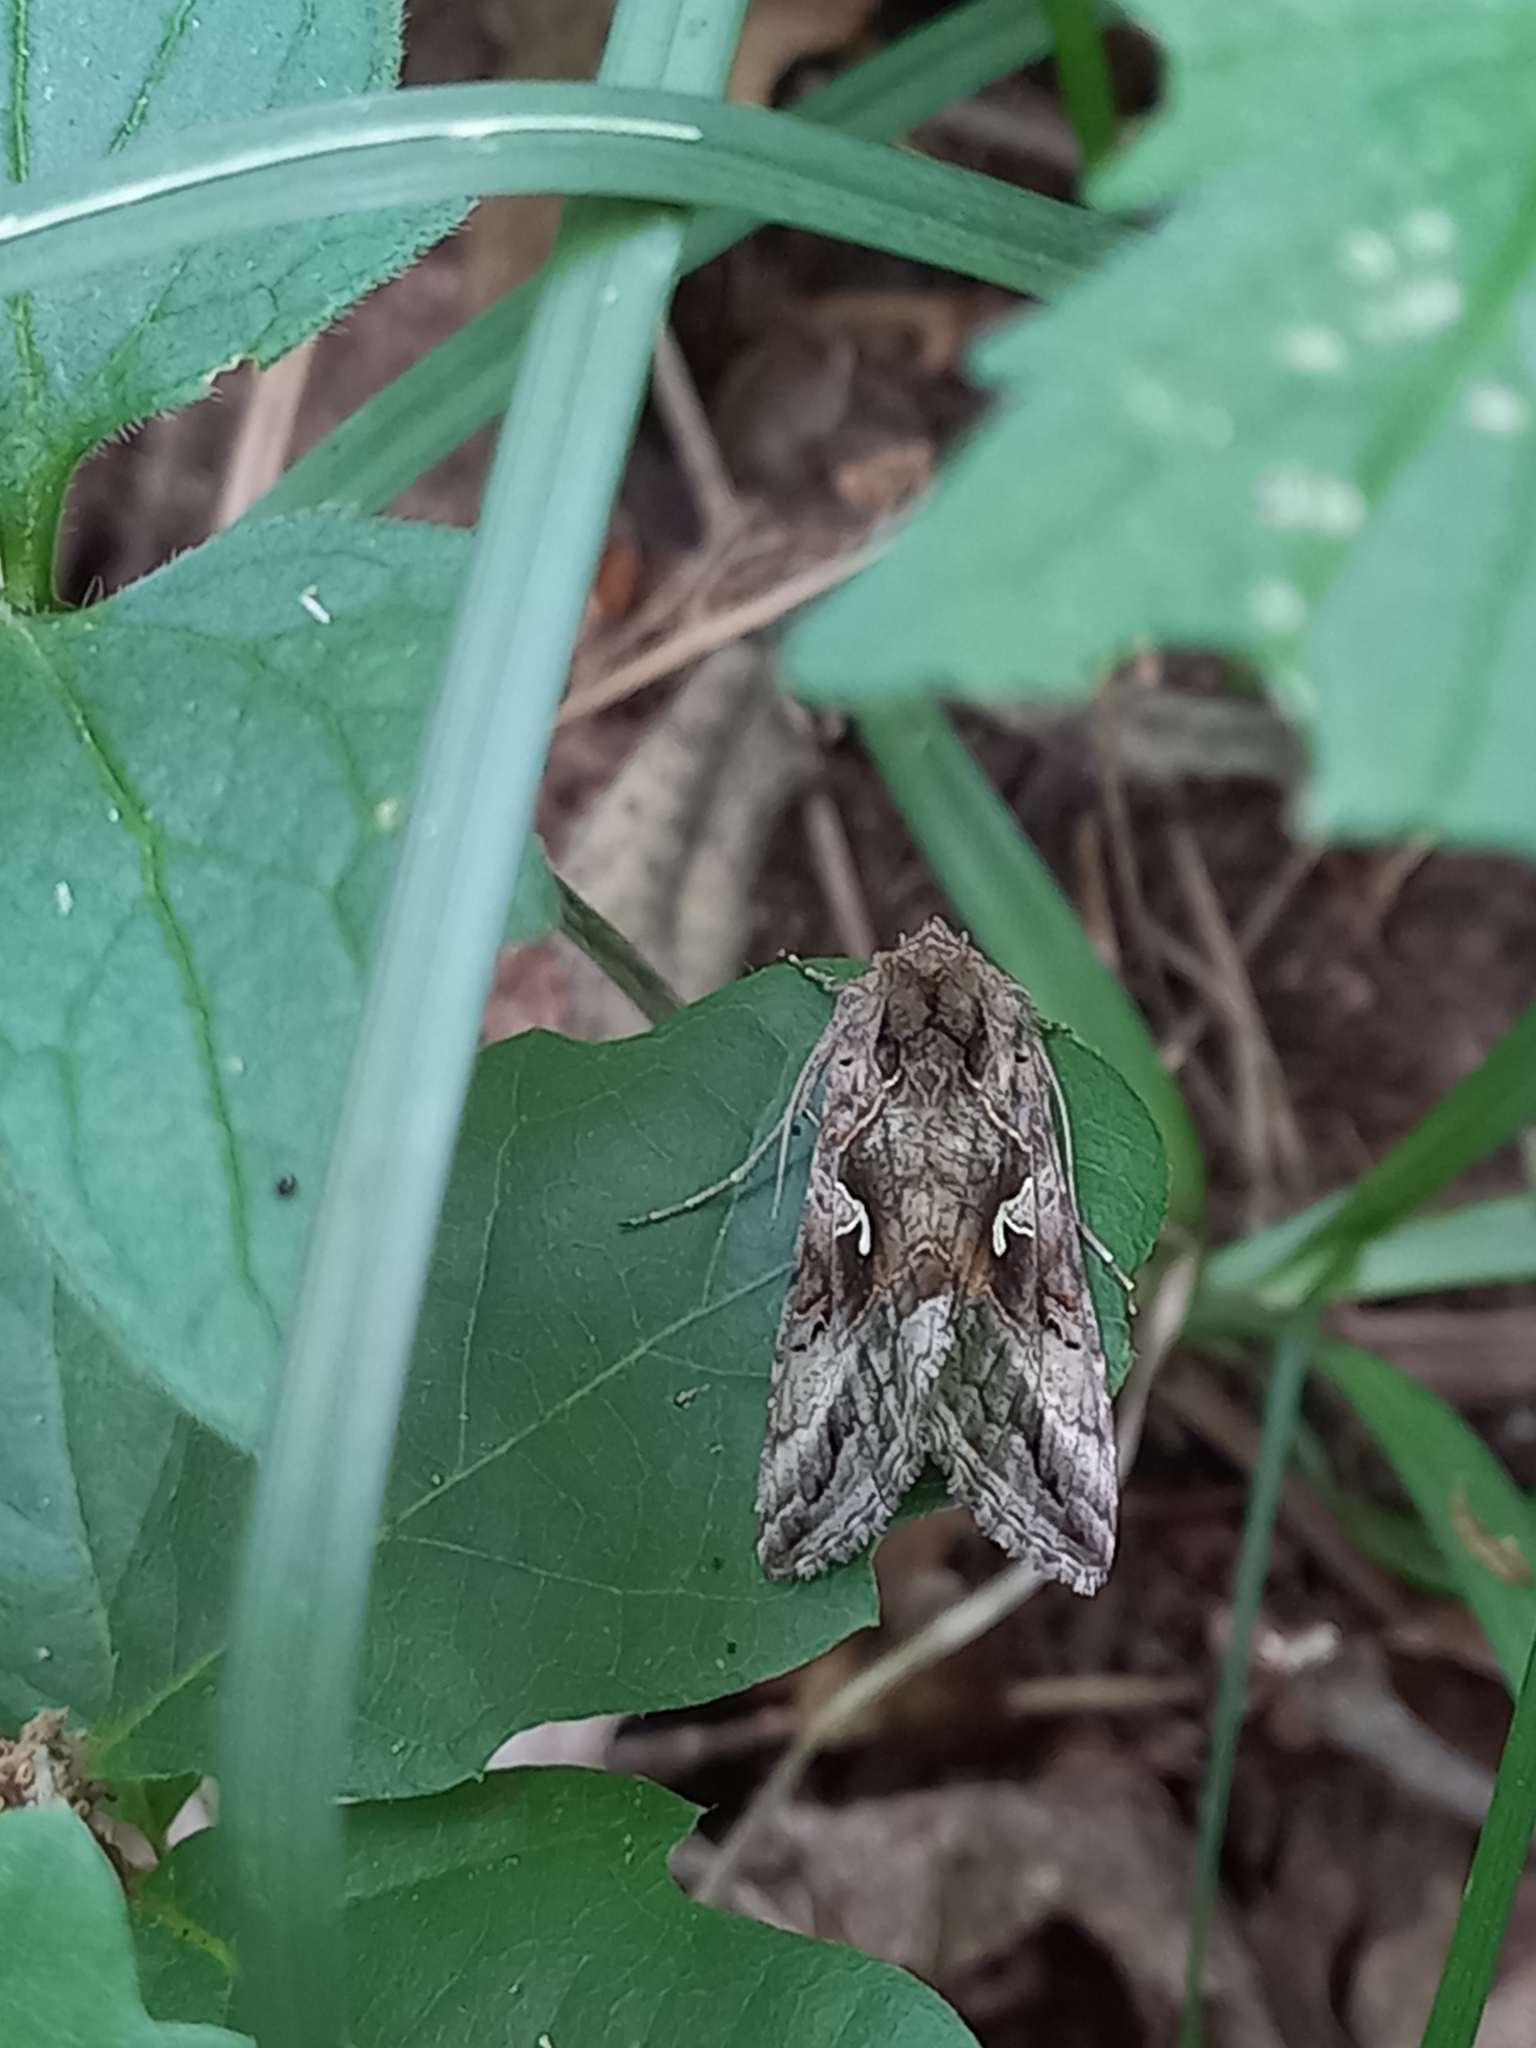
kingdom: Animalia
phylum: Arthropoda
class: Insecta
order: Lepidoptera
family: Noctuidae
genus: Autographa
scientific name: Autographa gamma
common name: Silver y
